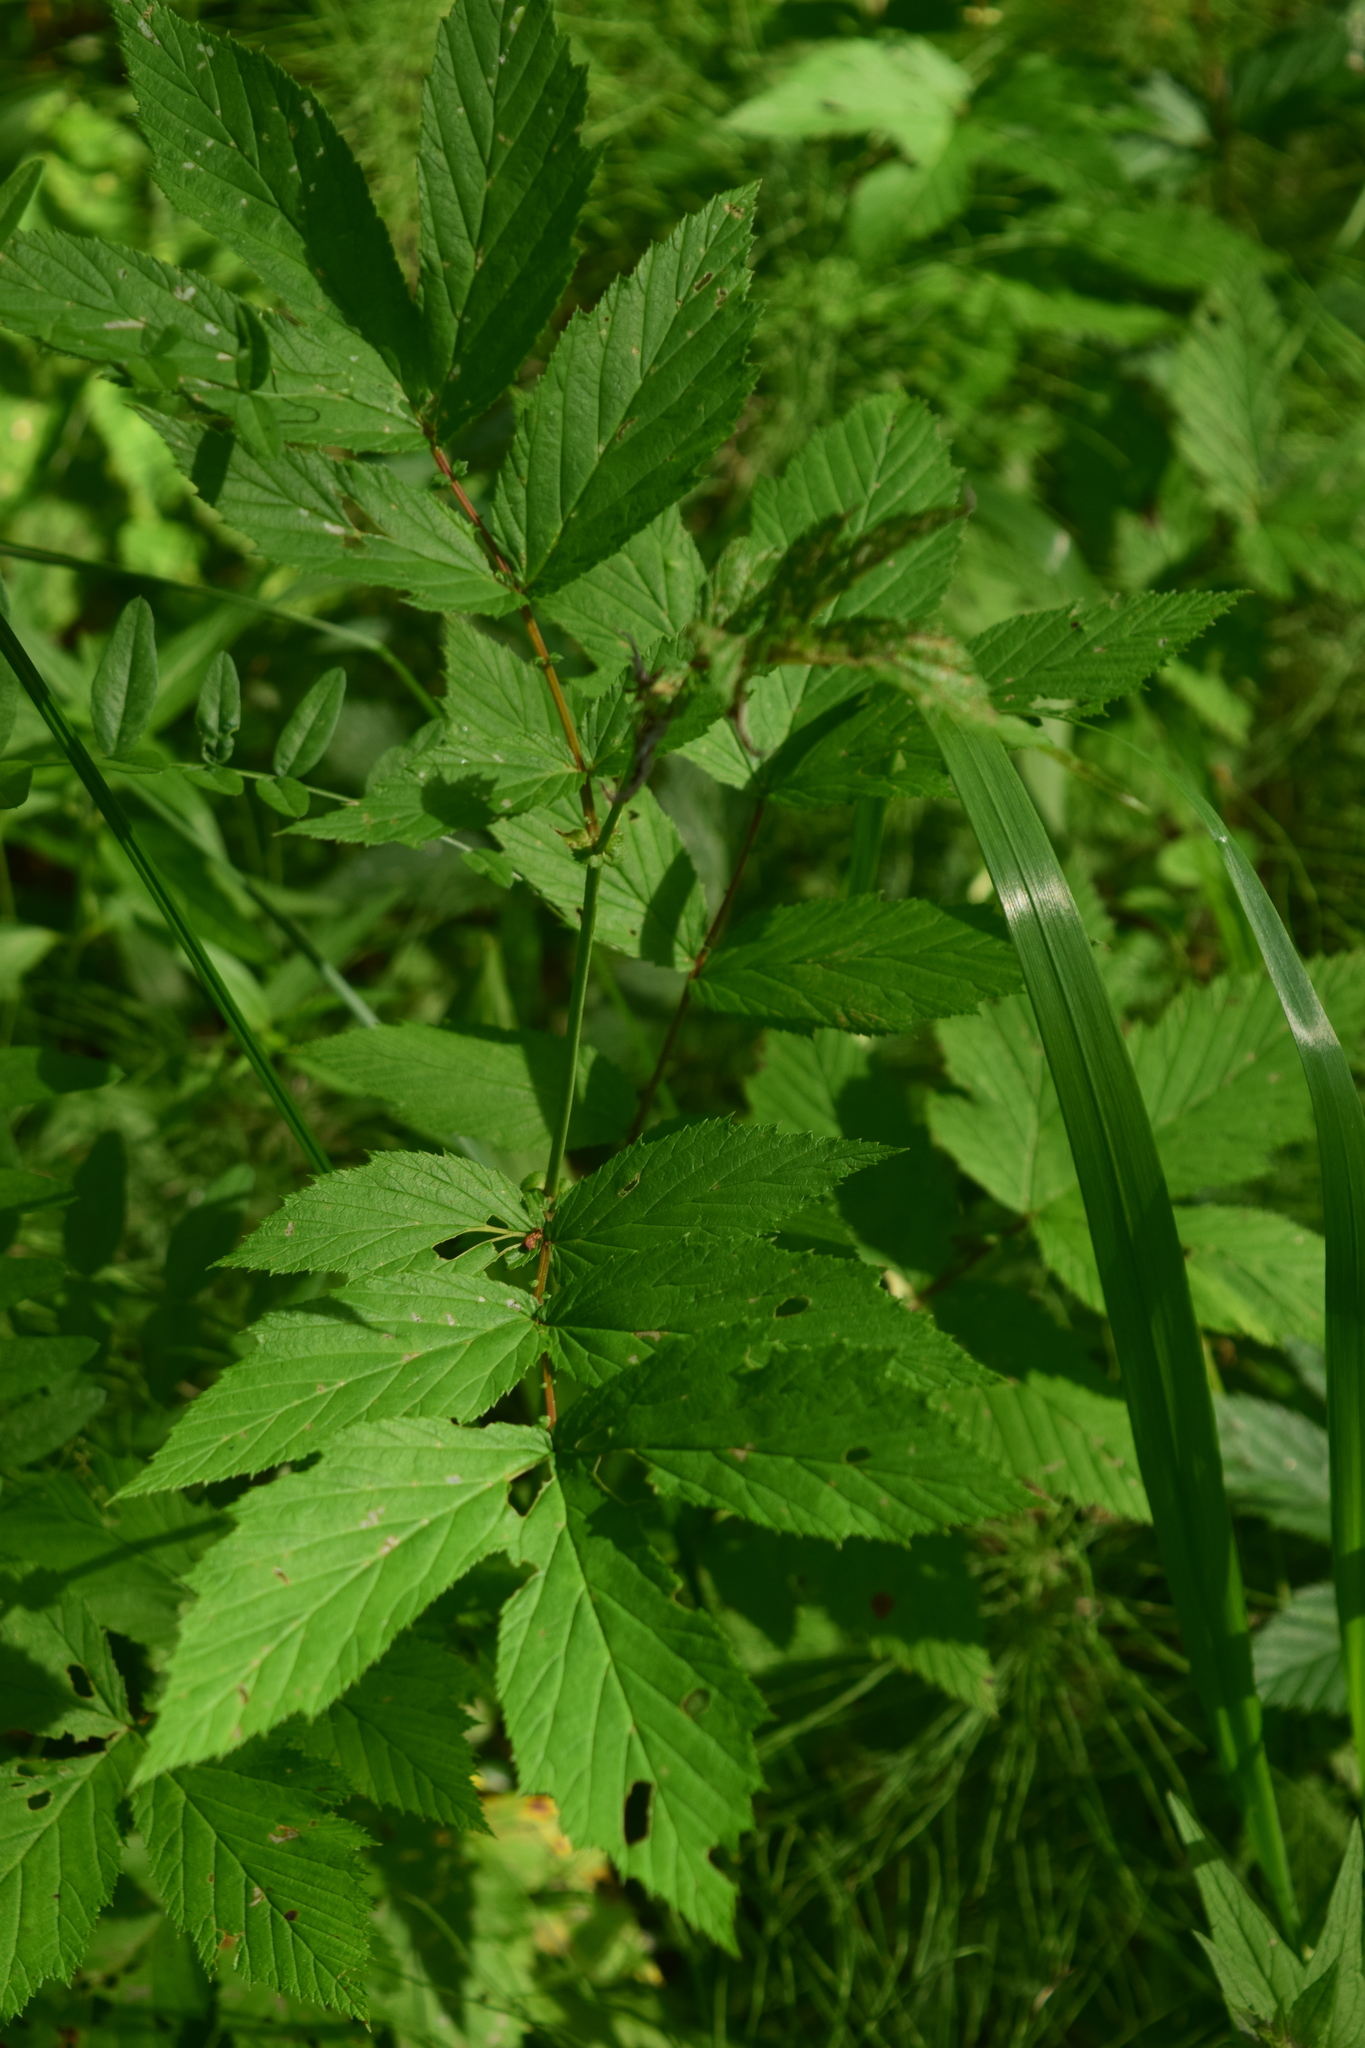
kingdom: Plantae
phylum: Tracheophyta
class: Magnoliopsida
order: Rosales
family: Rosaceae
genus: Filipendula
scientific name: Filipendula ulmaria
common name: Meadowsweet
